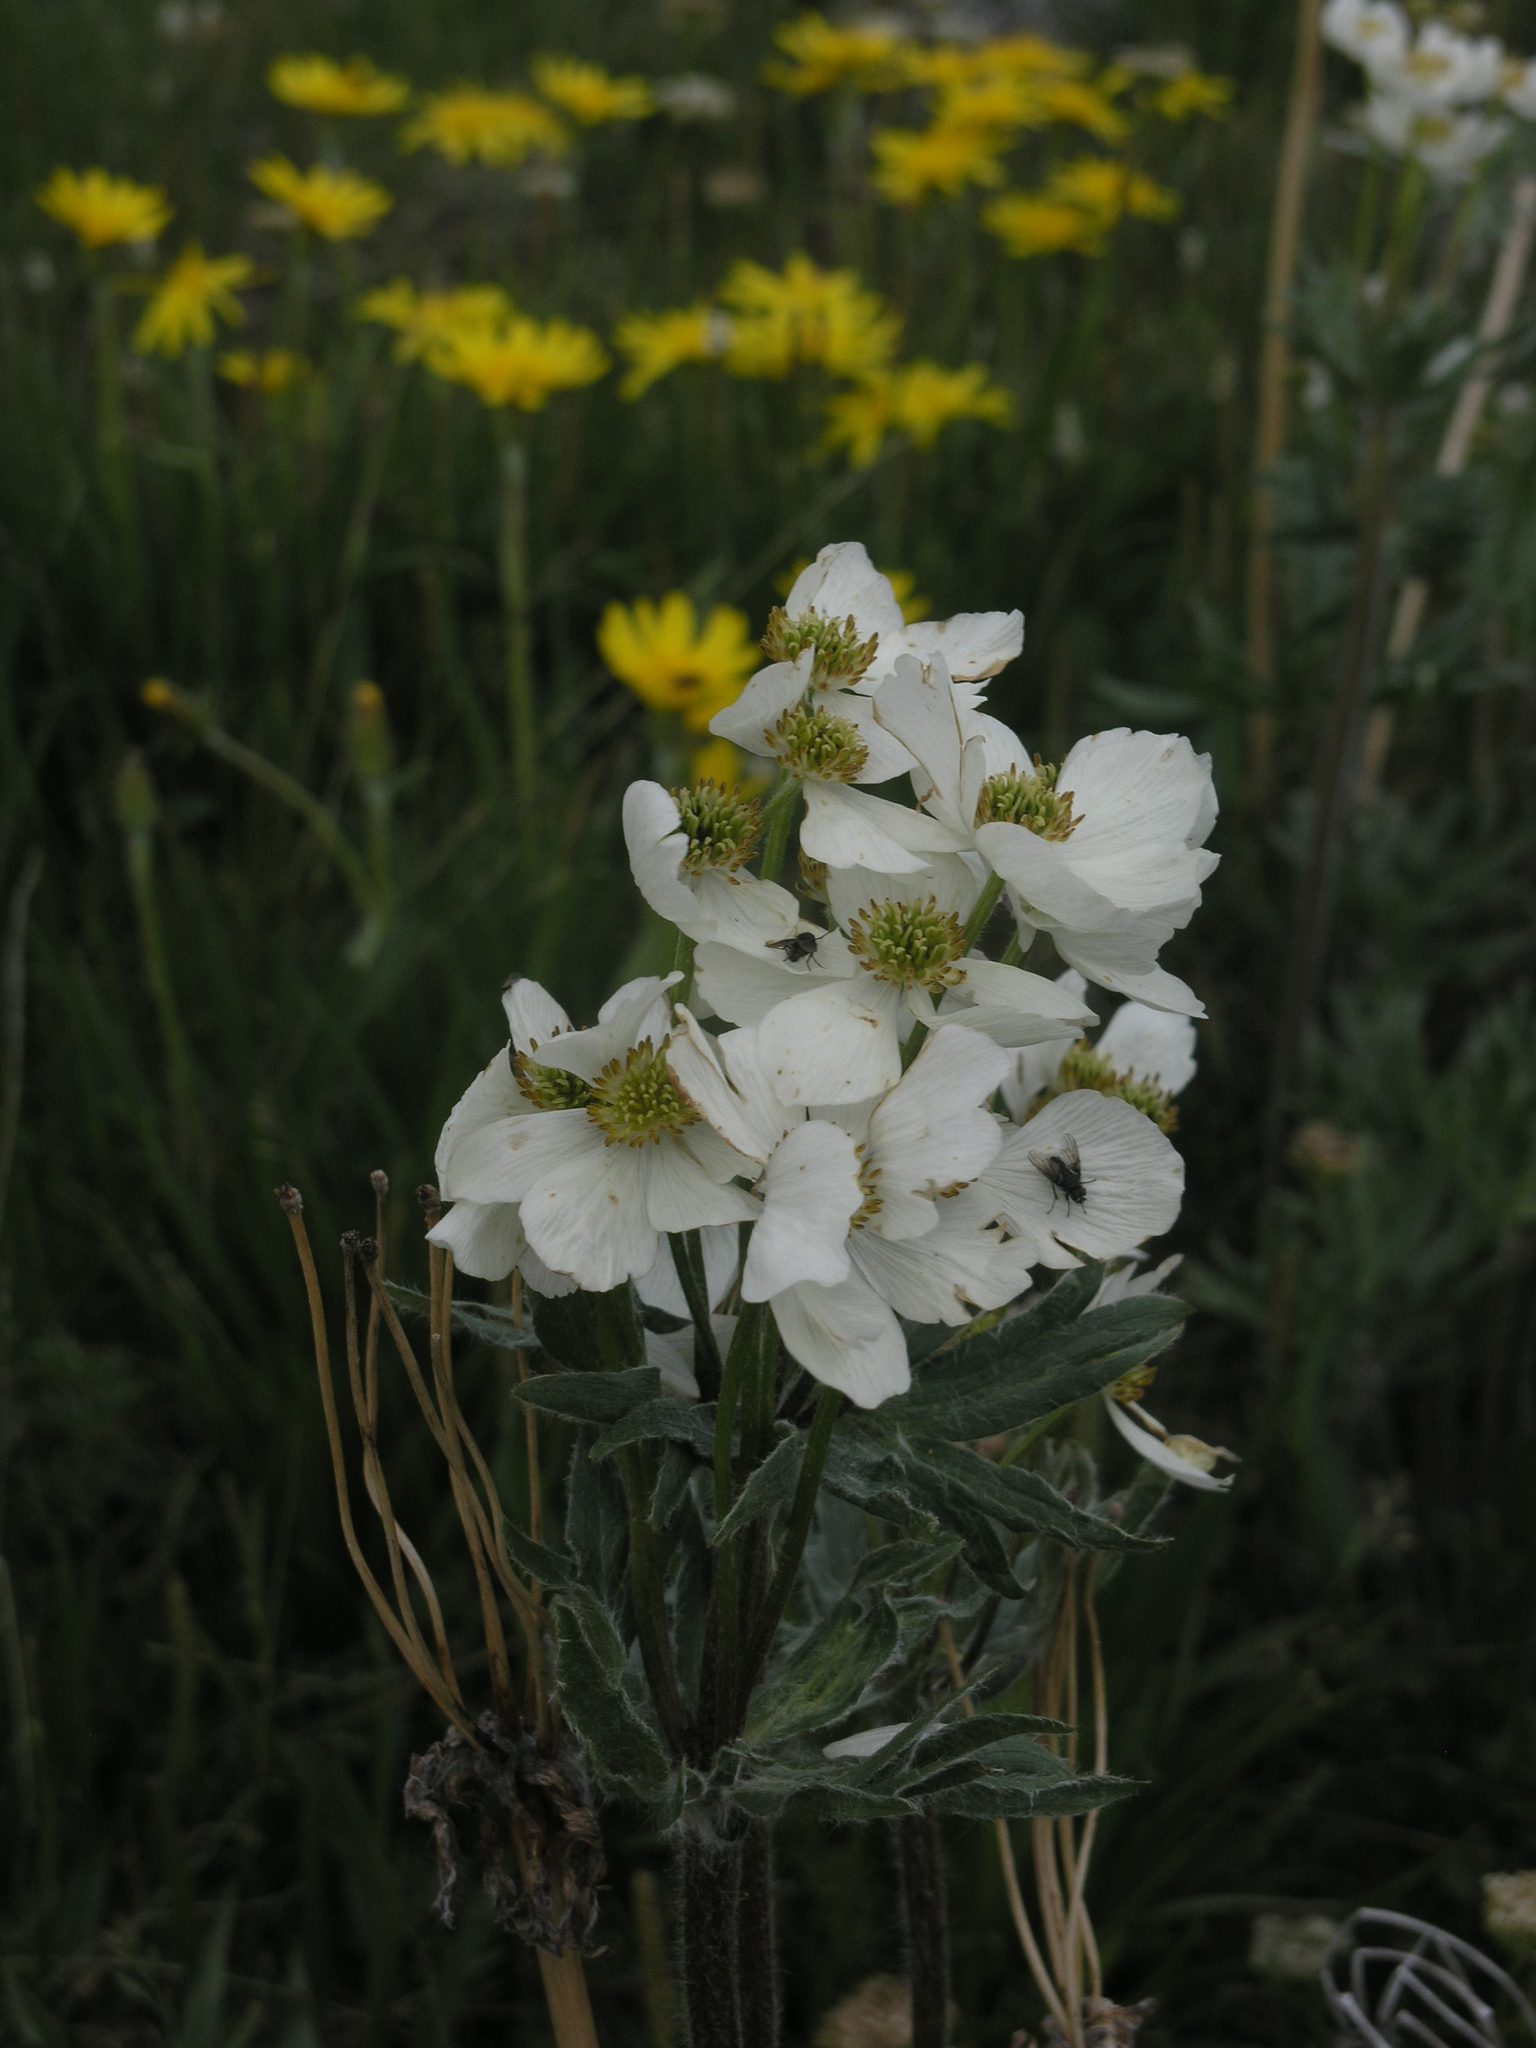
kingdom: Plantae
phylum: Tracheophyta
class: Magnoliopsida
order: Ranunculales
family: Ranunculaceae
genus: Anemonastrum
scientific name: Anemonastrum narcissiflorum
